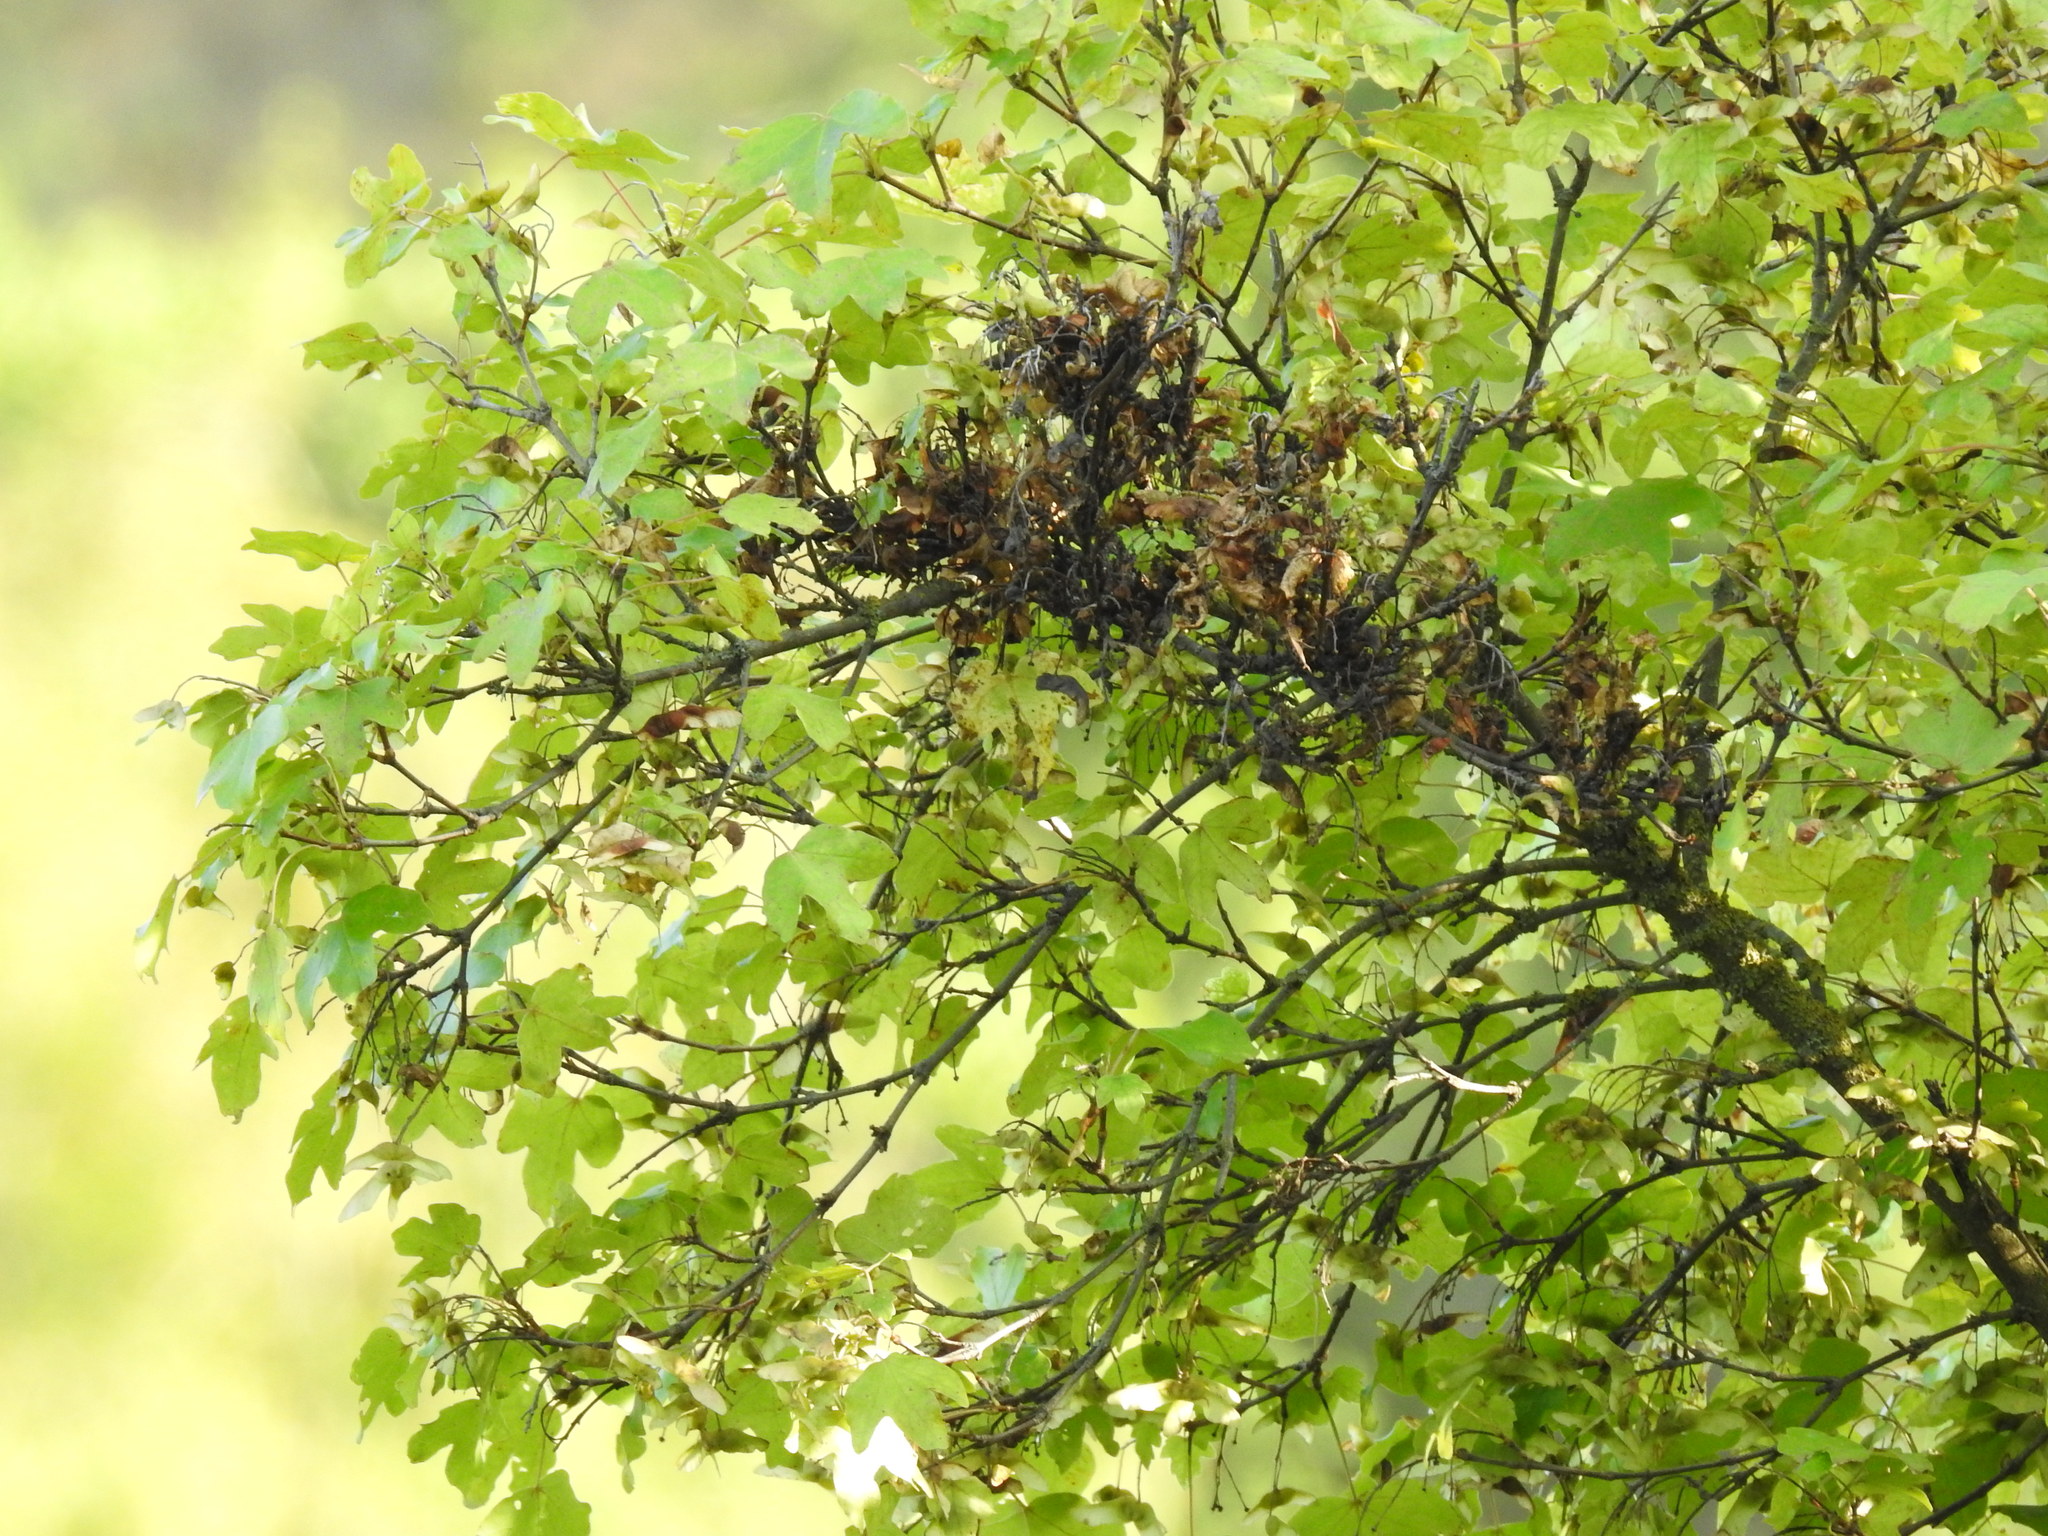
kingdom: Plantae
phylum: Tracheophyta
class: Magnoliopsida
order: Sapindales
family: Sapindaceae
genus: Acer
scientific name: Acer campestre
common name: Field maple
